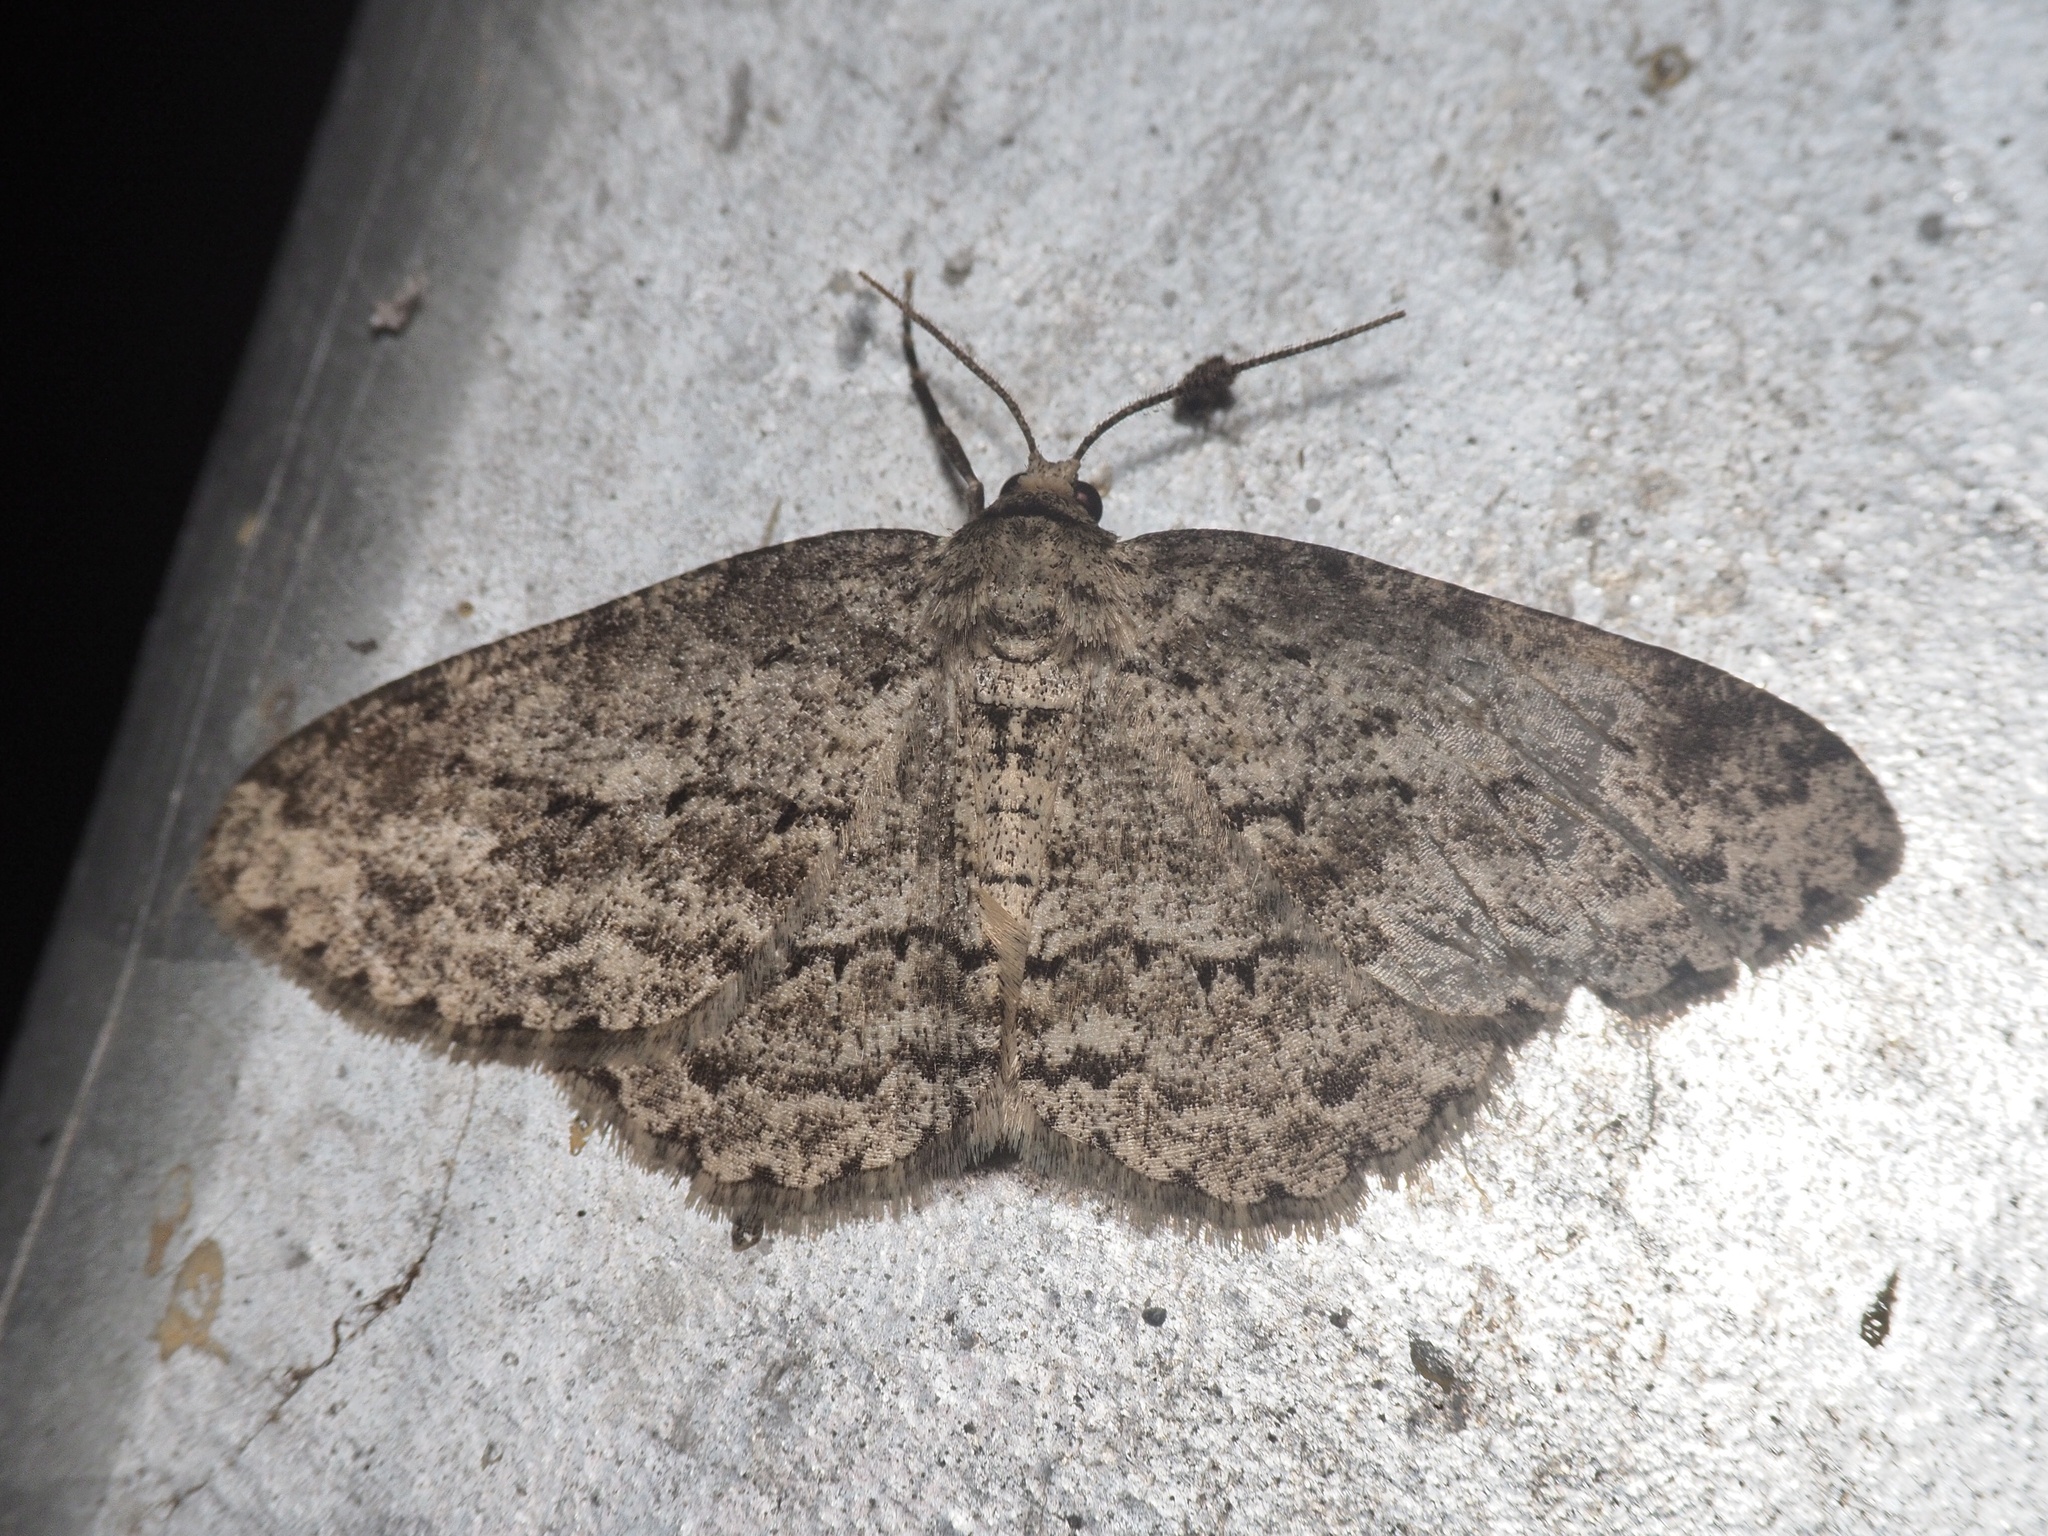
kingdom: Animalia
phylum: Arthropoda
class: Insecta
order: Lepidoptera
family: Geometridae
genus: Ectropis
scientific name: Ectropis crepuscularia
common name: Engrailed
